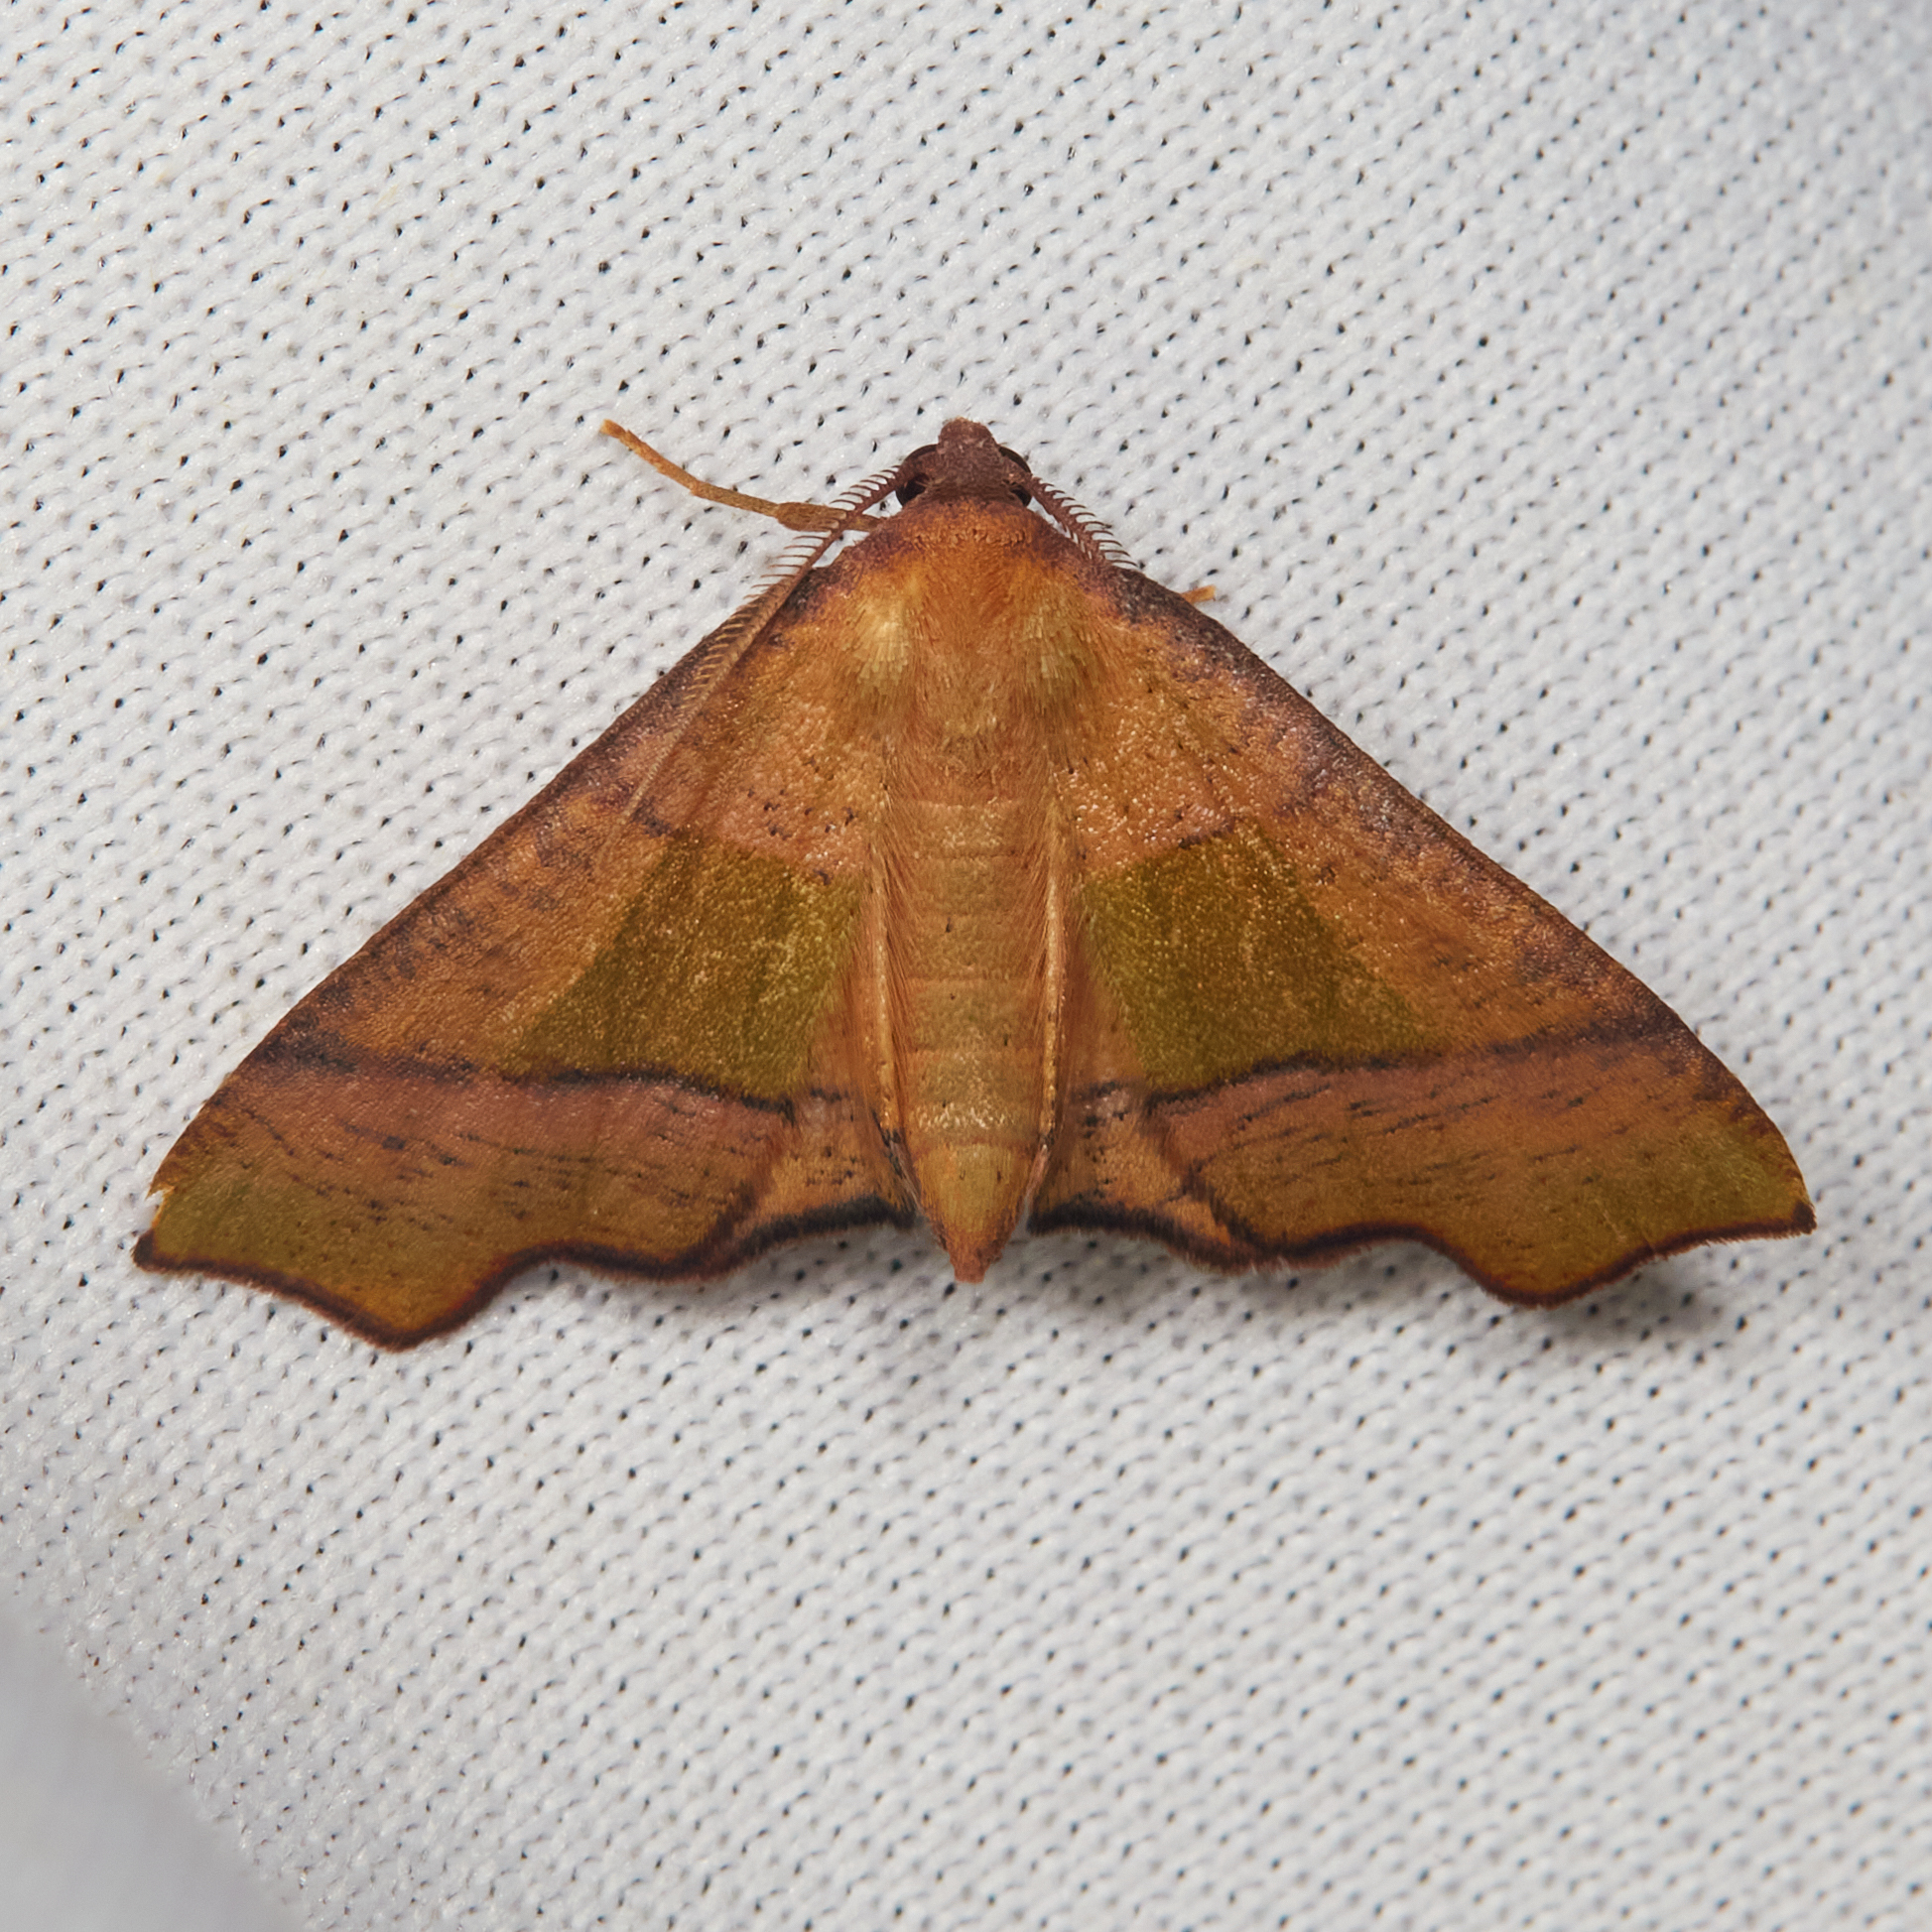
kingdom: Animalia
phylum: Arthropoda
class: Insecta
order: Lepidoptera
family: Geometridae
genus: Plagodis
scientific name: Plagodis phlogosaria
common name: Straight-lined plagodis
